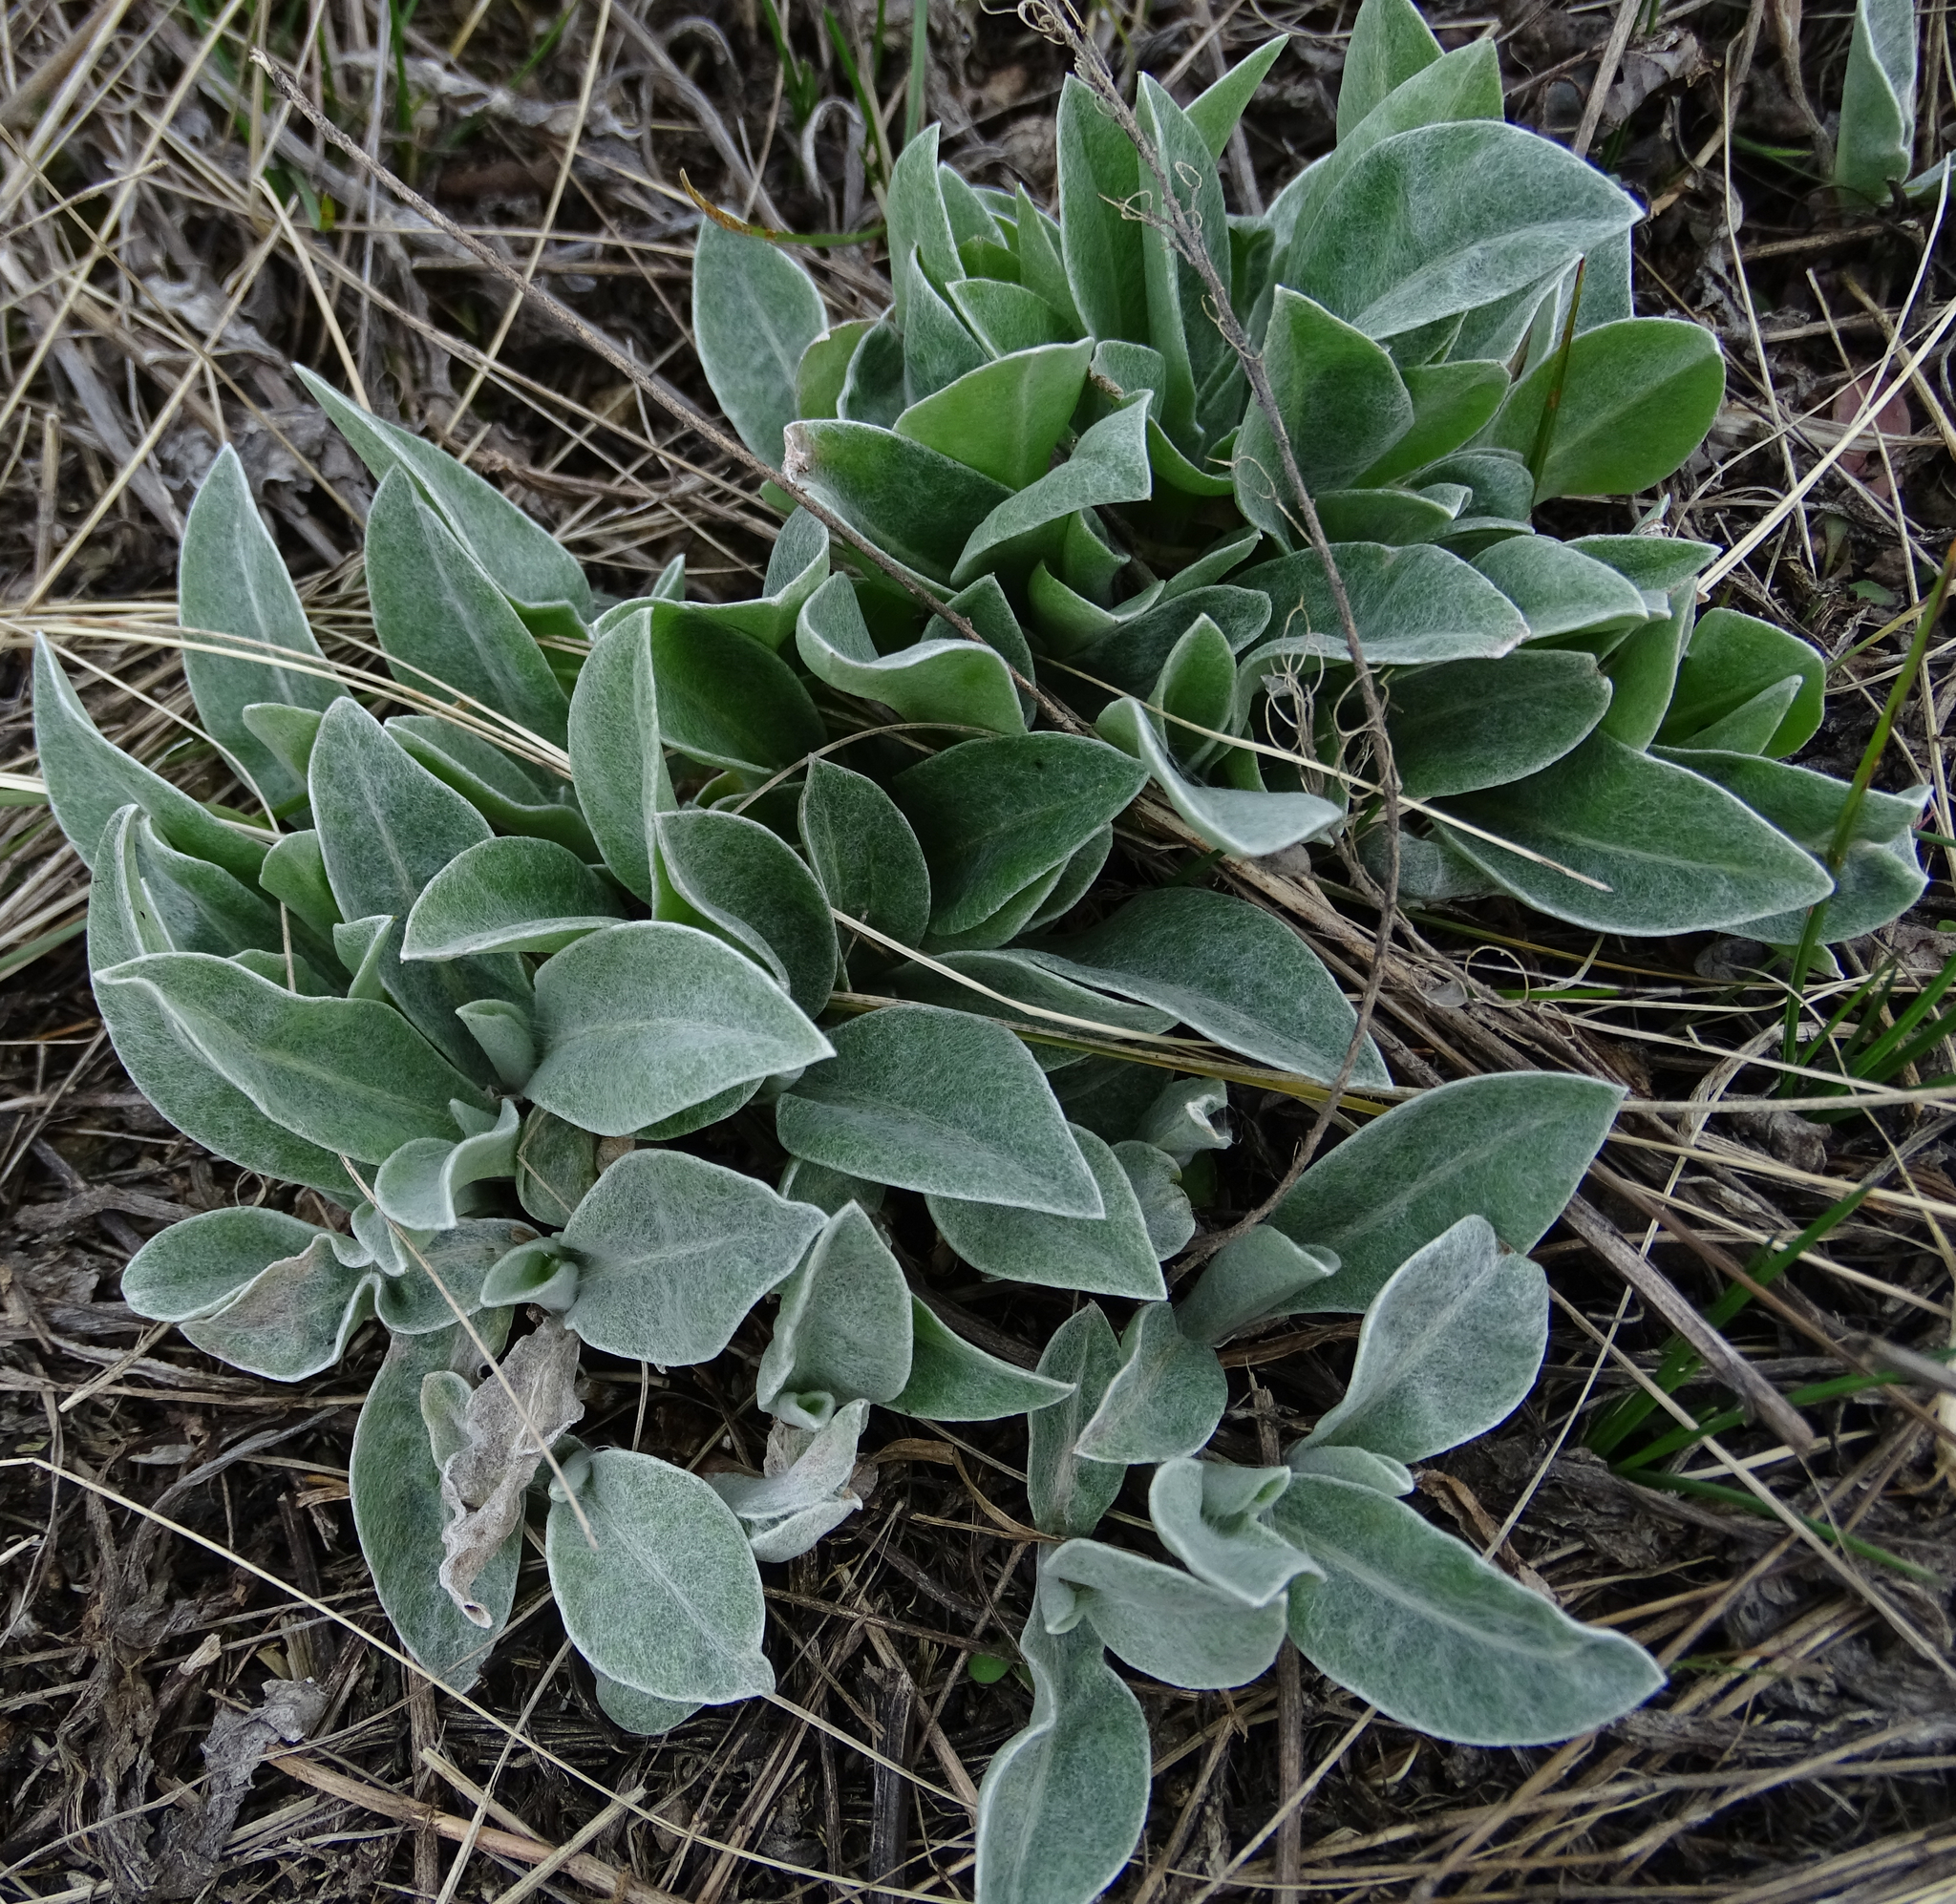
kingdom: Plantae
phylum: Tracheophyta
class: Magnoliopsida
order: Asterales
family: Asteraceae
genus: Centaurea
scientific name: Centaurea triumfettii
